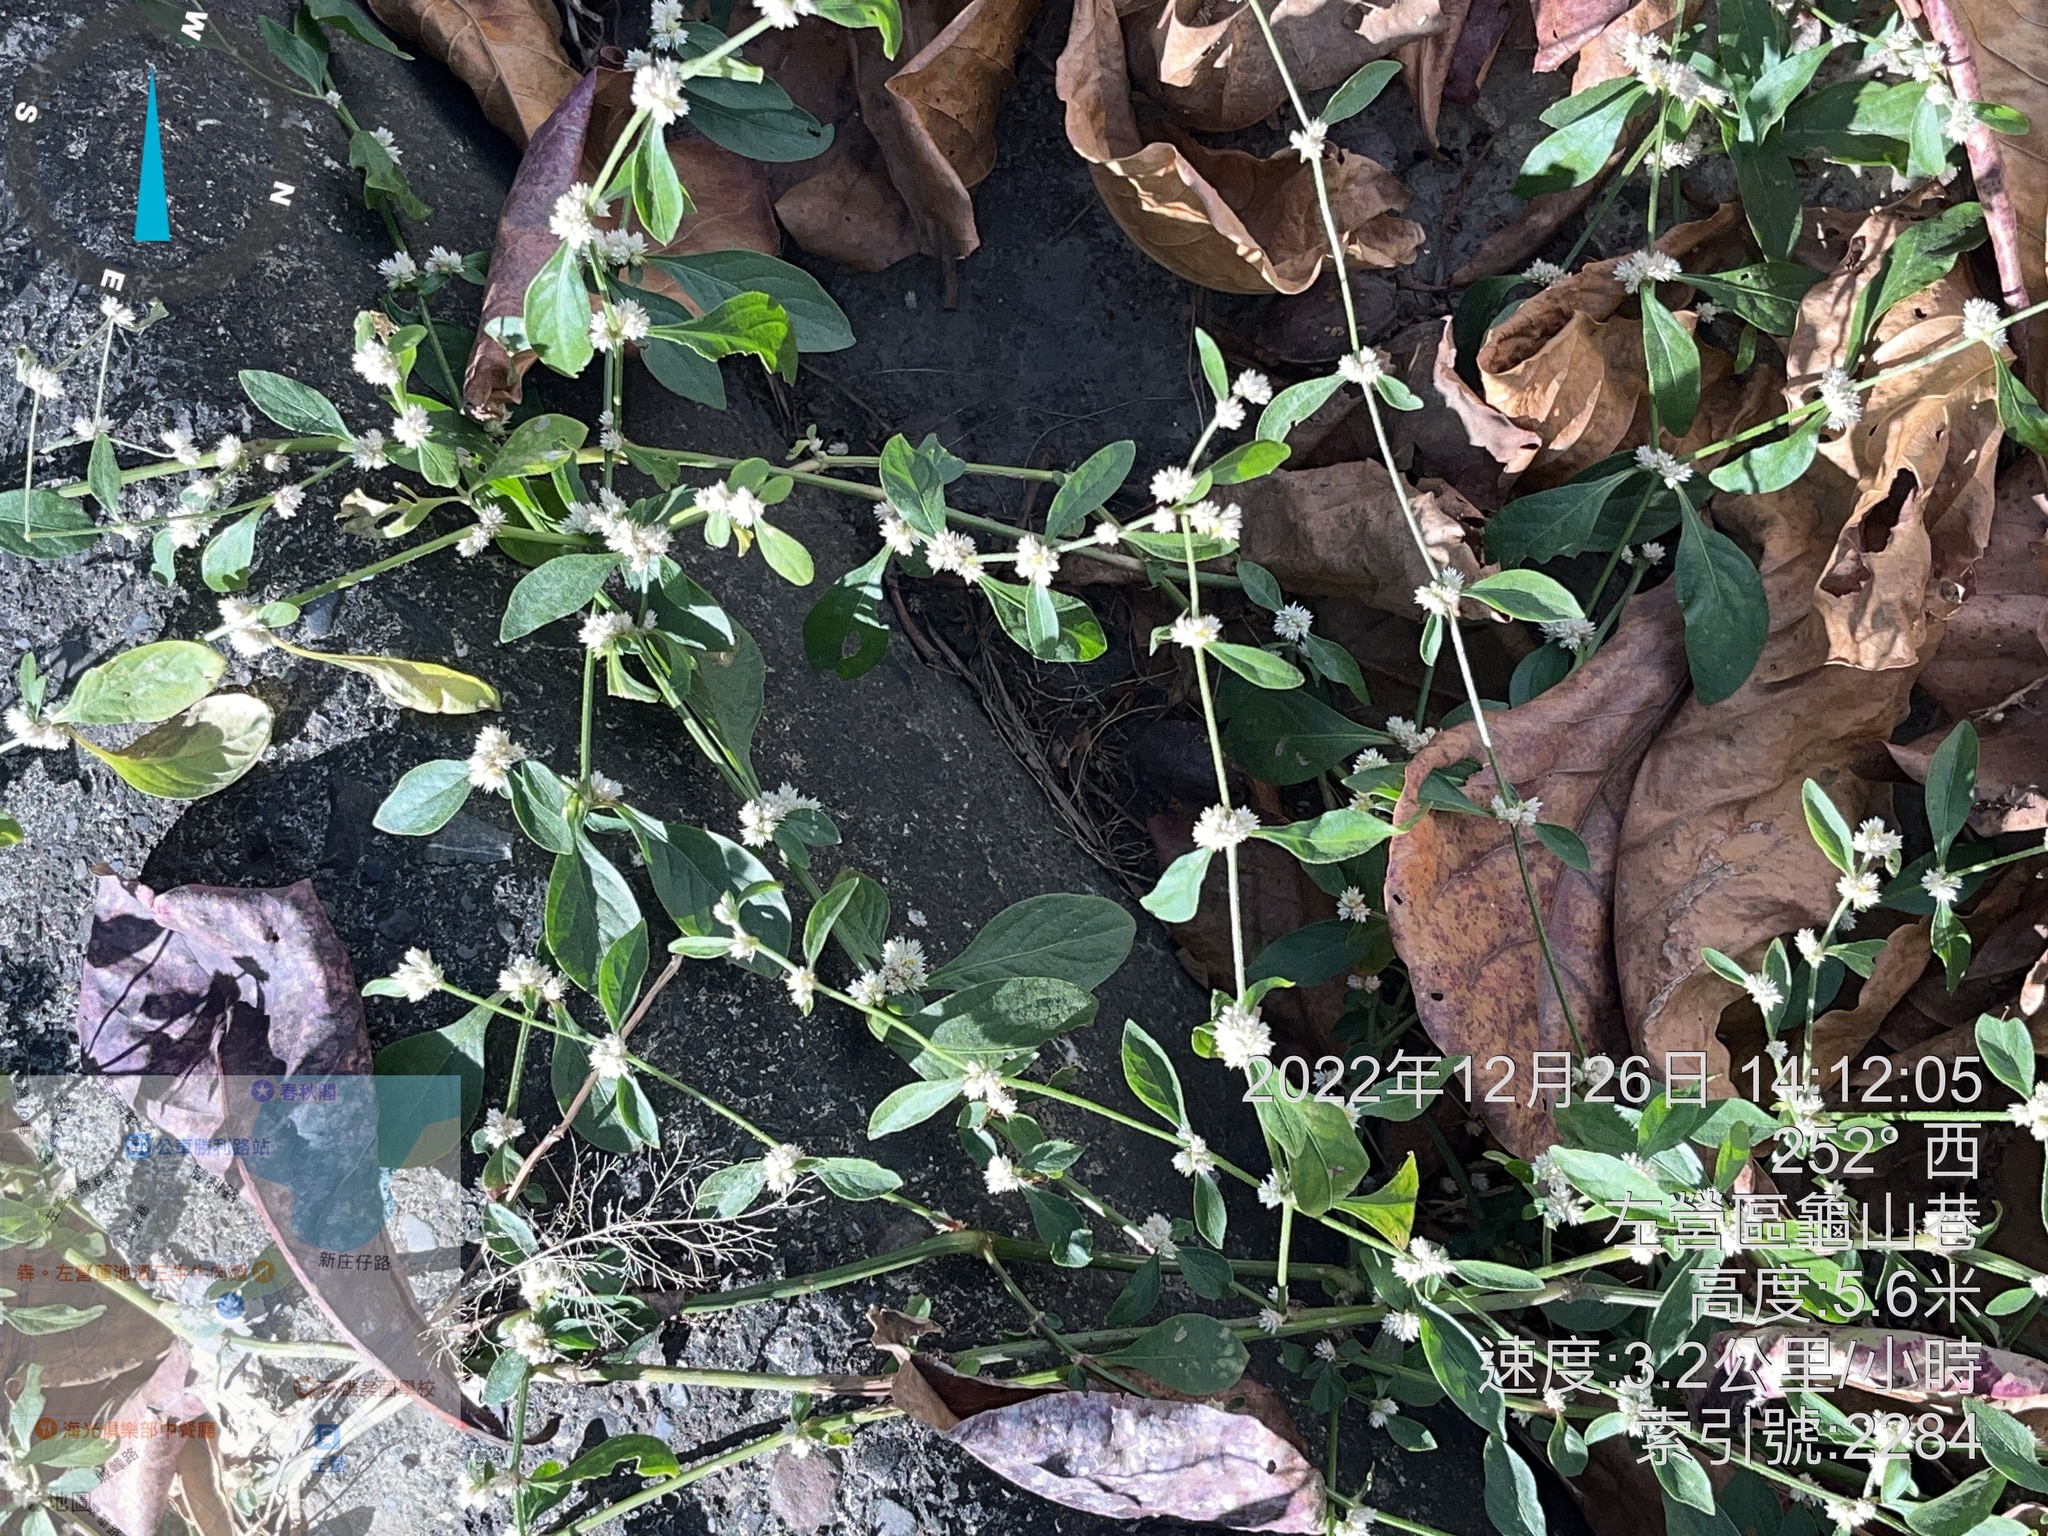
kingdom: Plantae
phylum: Tracheophyta
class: Magnoliopsida
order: Caryophyllales
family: Amaranthaceae
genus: Alternanthera
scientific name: Alternanthera bettzickiana
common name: Calico-plant
